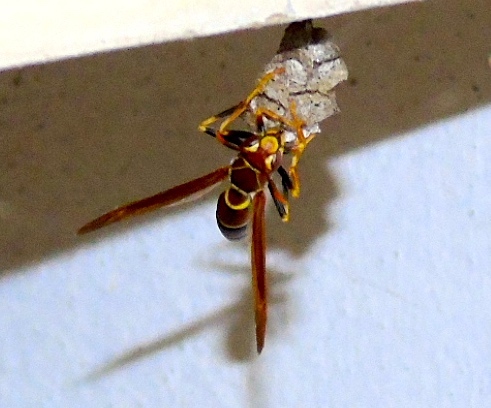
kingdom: Animalia
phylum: Arthropoda
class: Insecta
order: Hymenoptera
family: Eumenidae
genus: Polistes
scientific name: Polistes instabilis
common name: Unstable paper wasp
